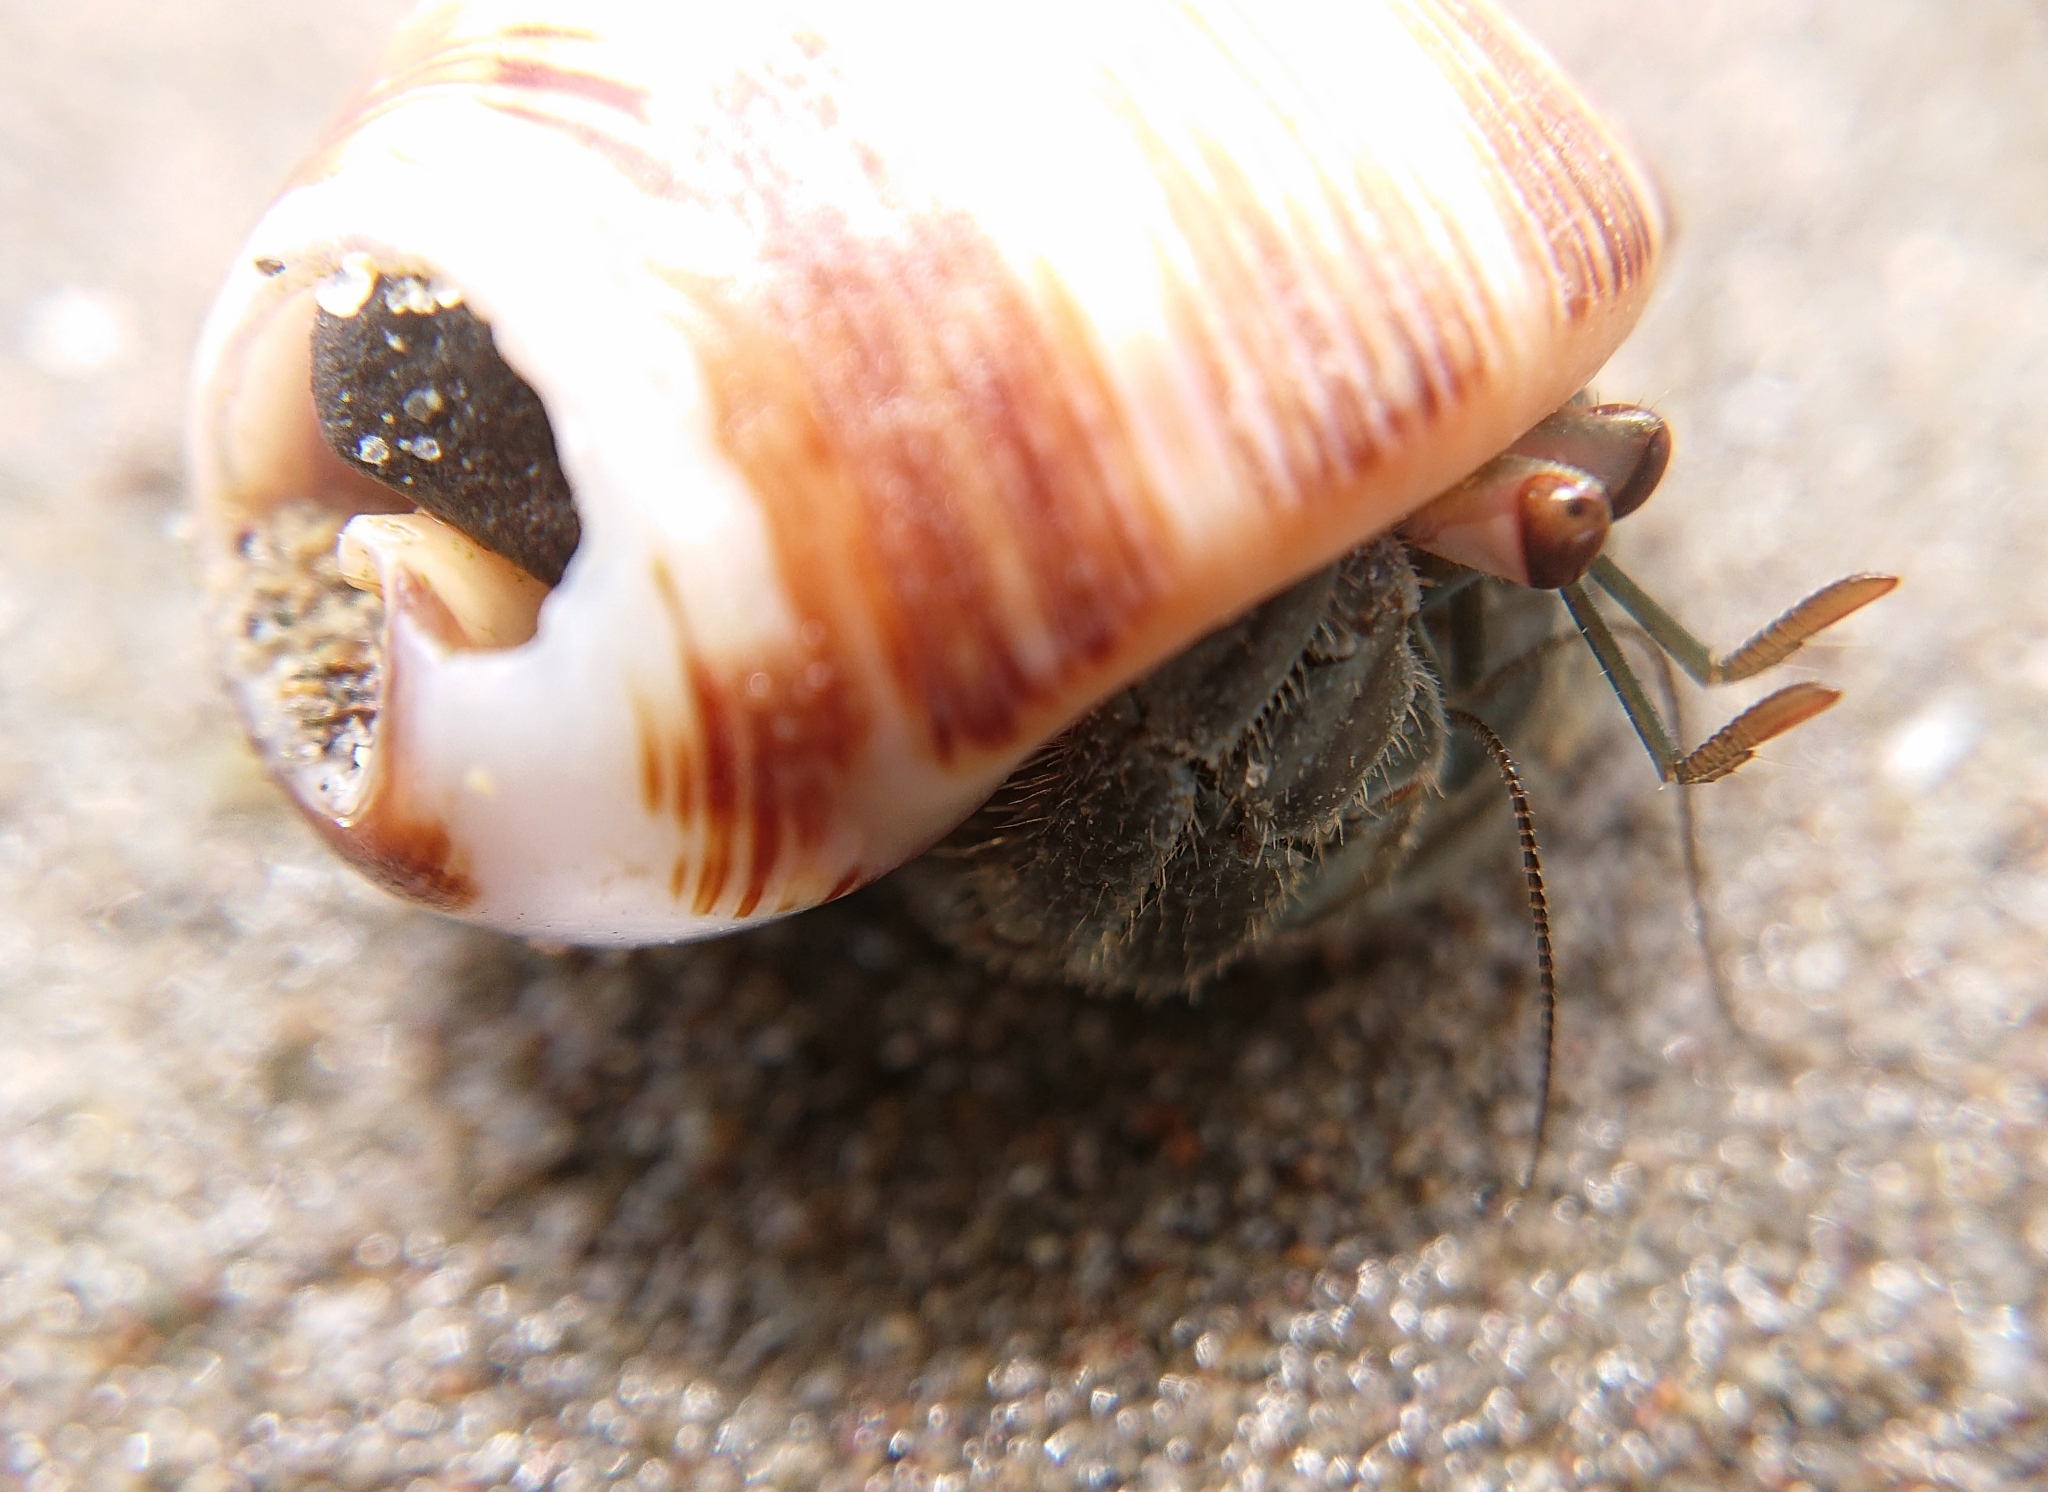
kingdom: Animalia
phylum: Arthropoda
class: Malacostraca
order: Decapoda
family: Coenobitidae
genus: Coenobita
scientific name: Coenobita compressus
